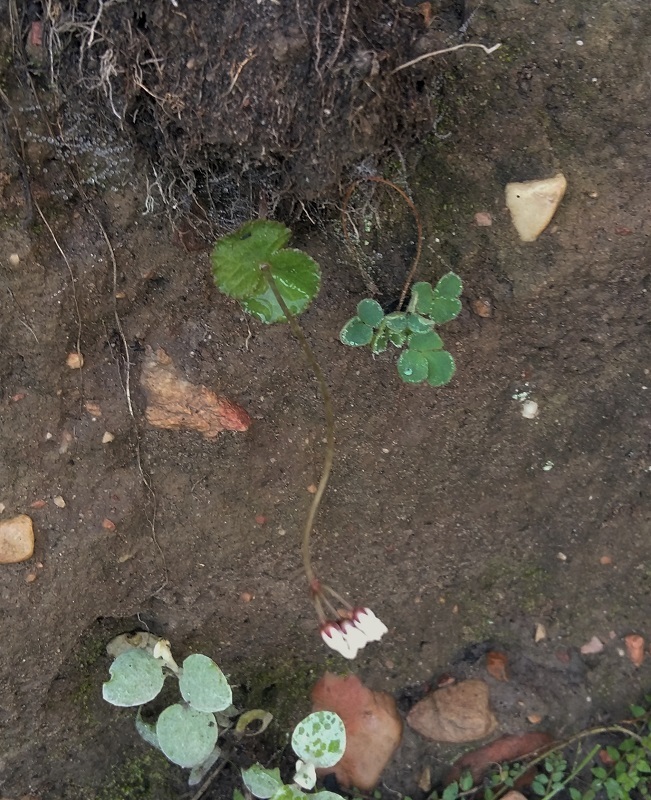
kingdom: Plantae
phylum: Tracheophyta
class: Magnoliopsida
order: Saxifragales
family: Crassulaceae
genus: Crassula
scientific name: Crassula saxifraga
